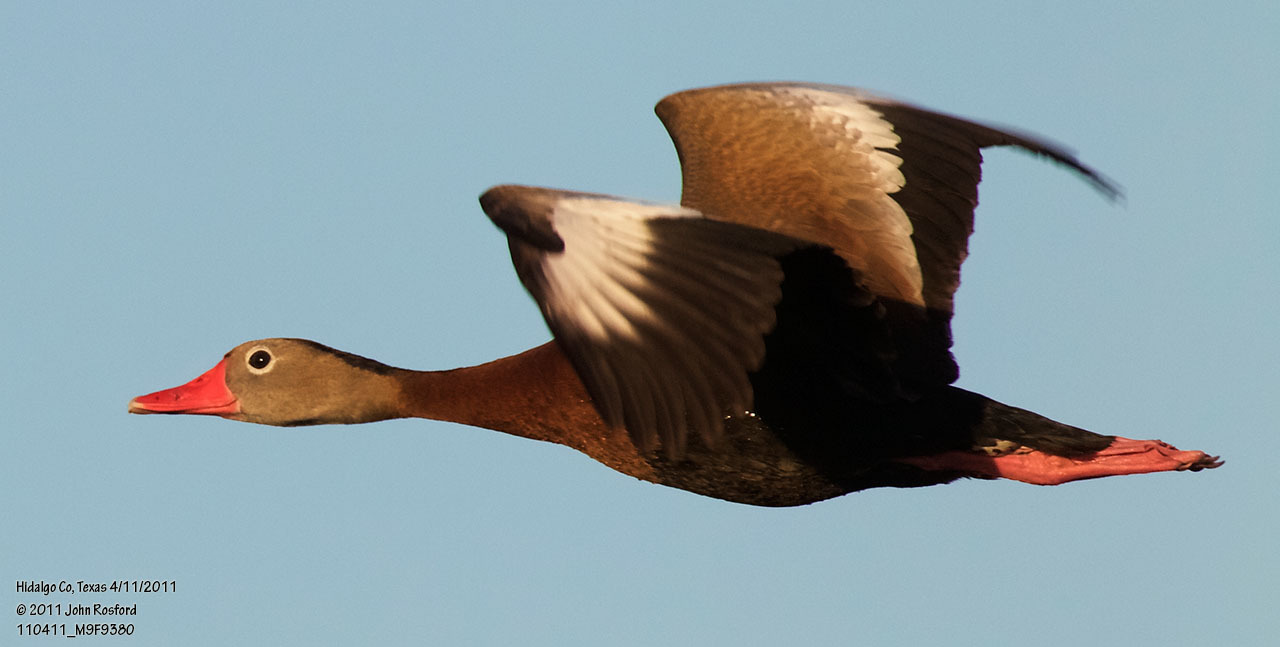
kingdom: Animalia
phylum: Chordata
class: Aves
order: Anseriformes
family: Anatidae
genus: Dendrocygna
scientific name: Dendrocygna autumnalis
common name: Black-bellied whistling duck
